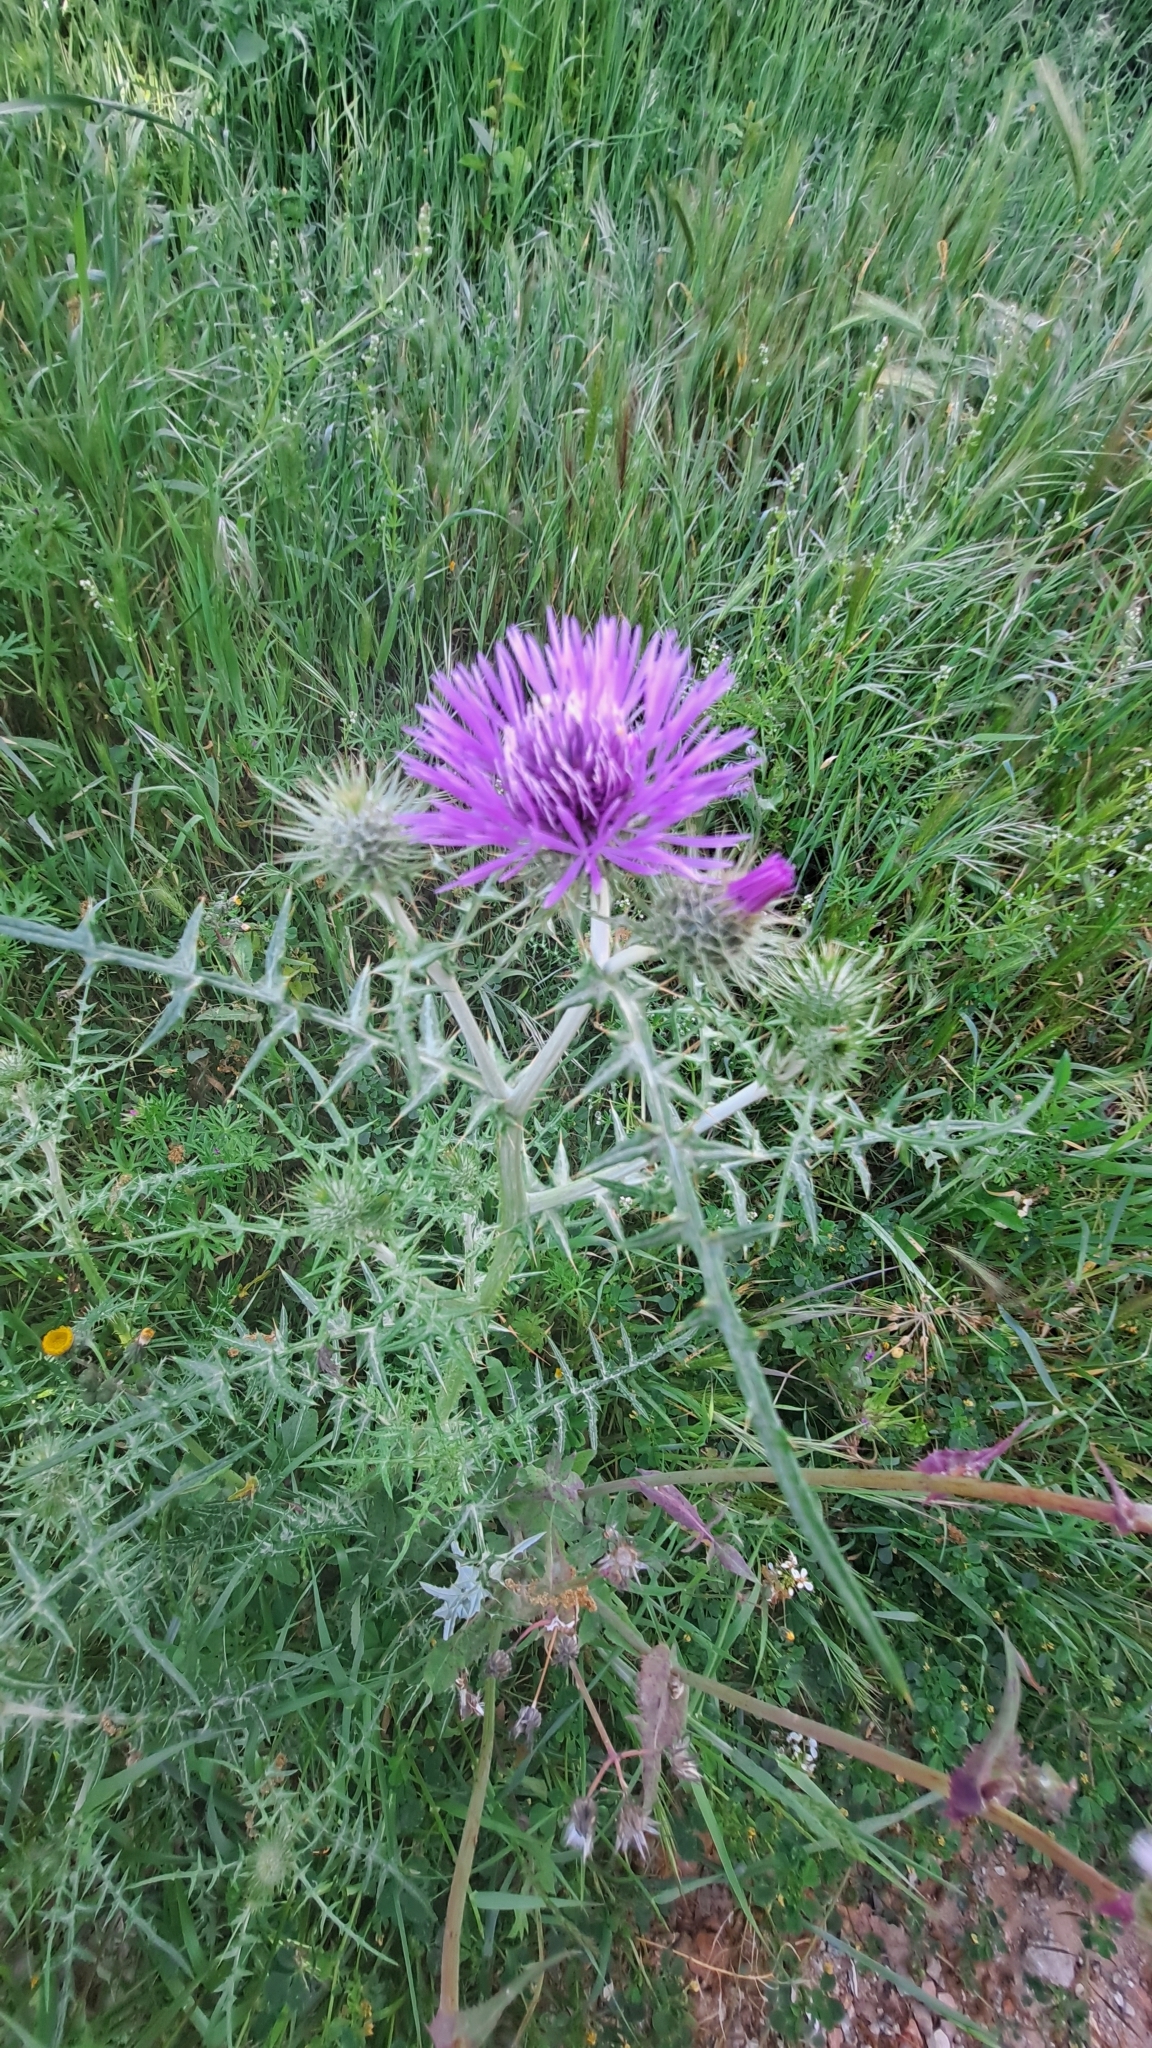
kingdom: Plantae
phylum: Tracheophyta
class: Magnoliopsida
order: Asterales
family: Asteraceae
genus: Galactites
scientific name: Galactites tomentosa
